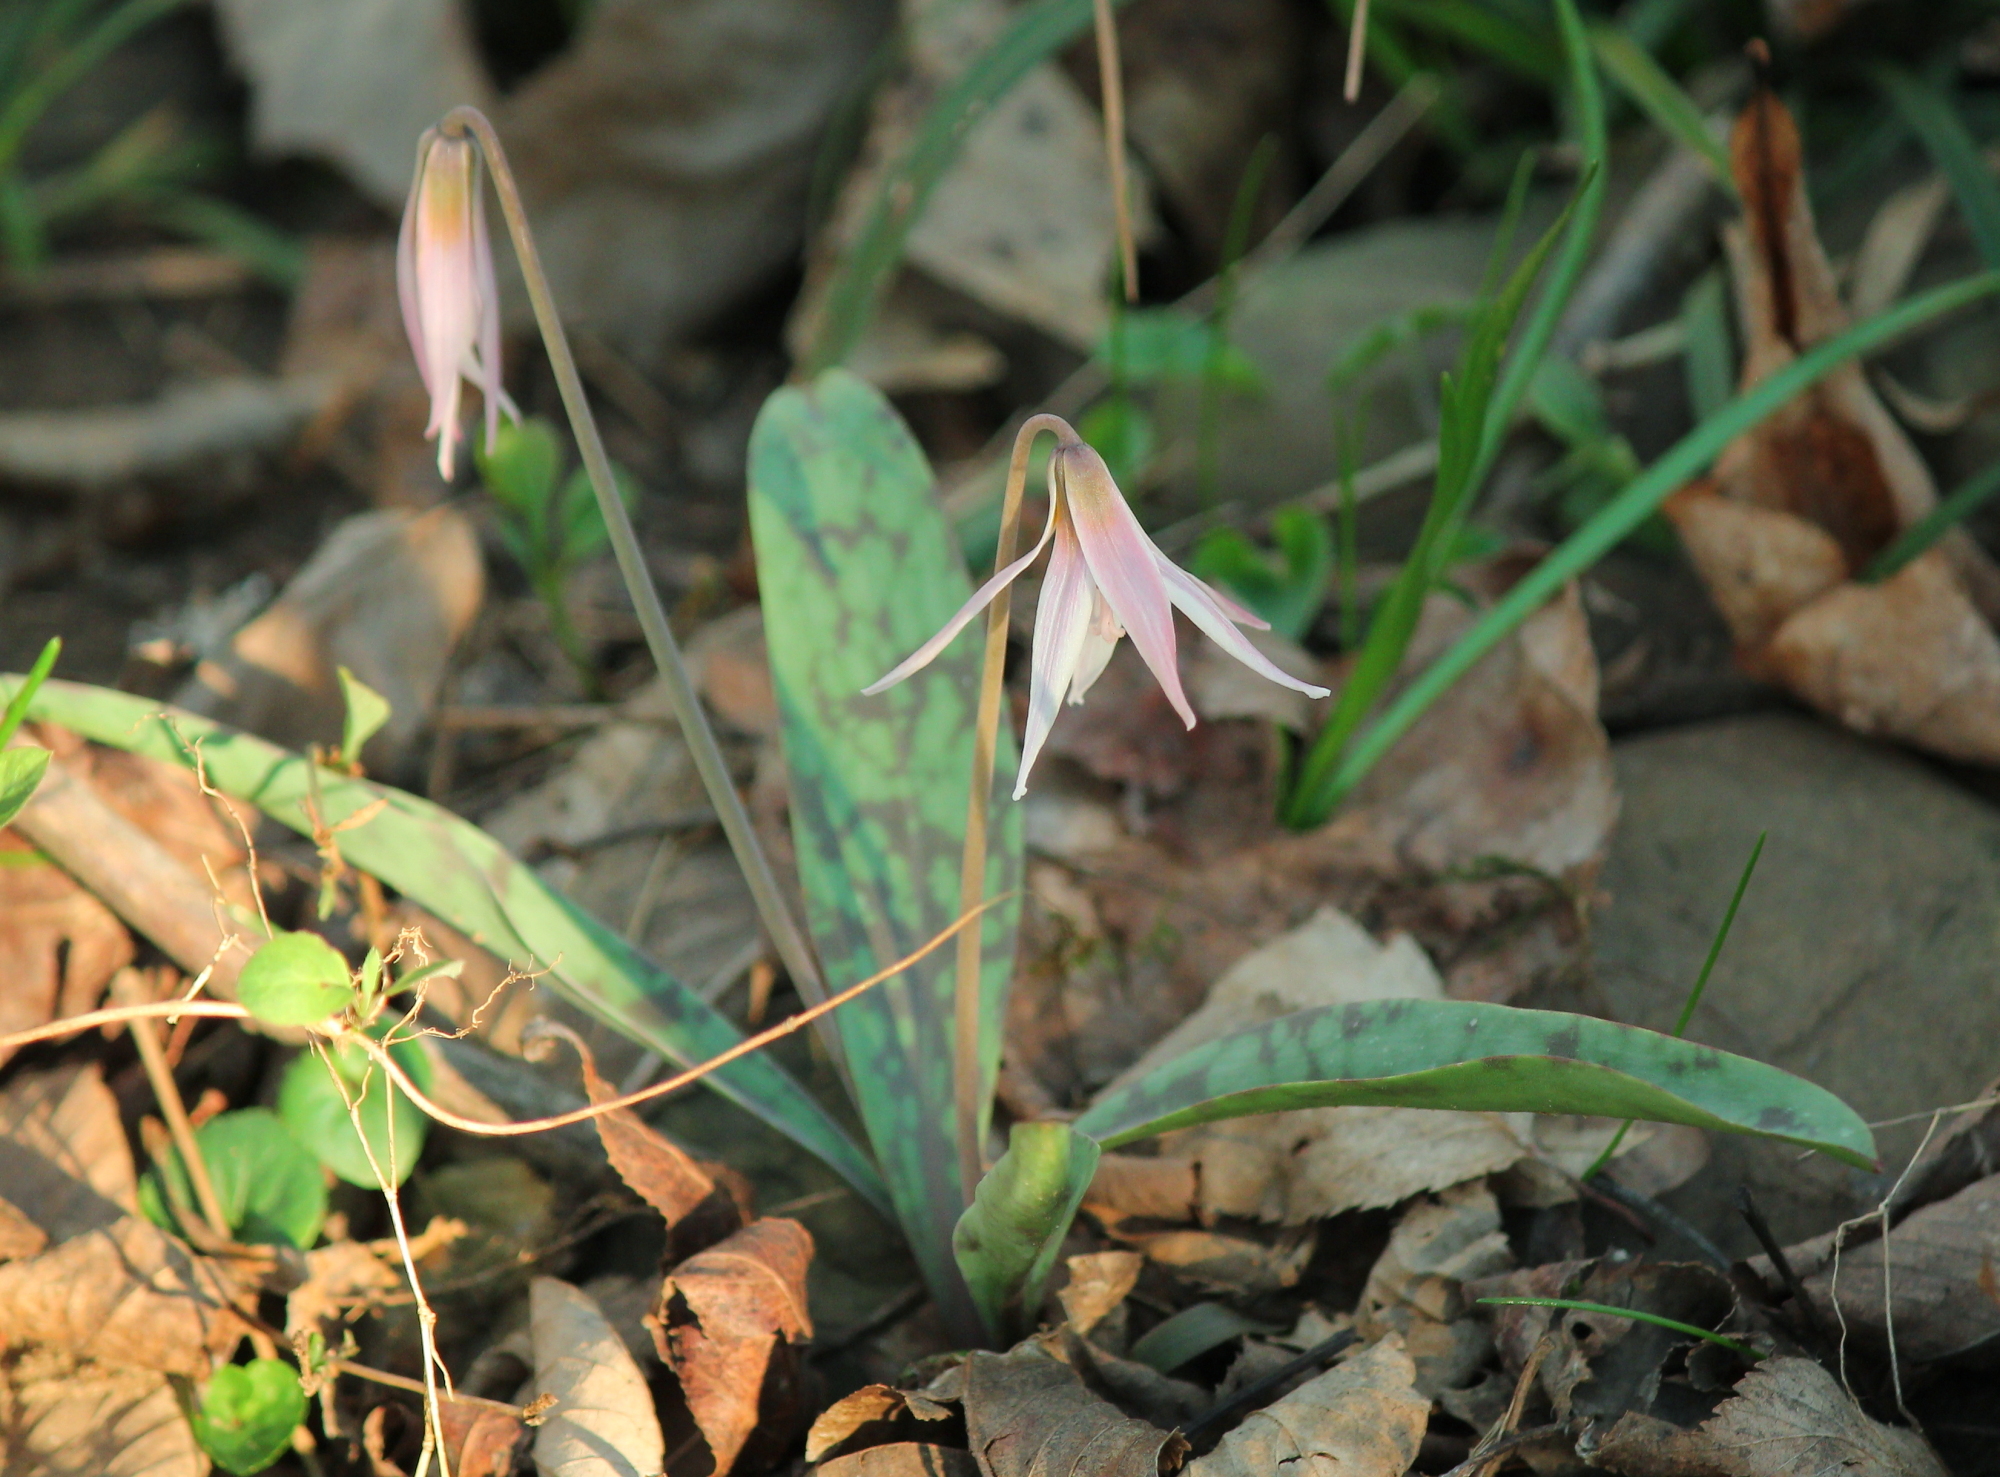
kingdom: Plantae
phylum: Tracheophyta
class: Liliopsida
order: Liliales
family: Liliaceae
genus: Erythronium
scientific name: Erythronium albidum
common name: White trout-lily
